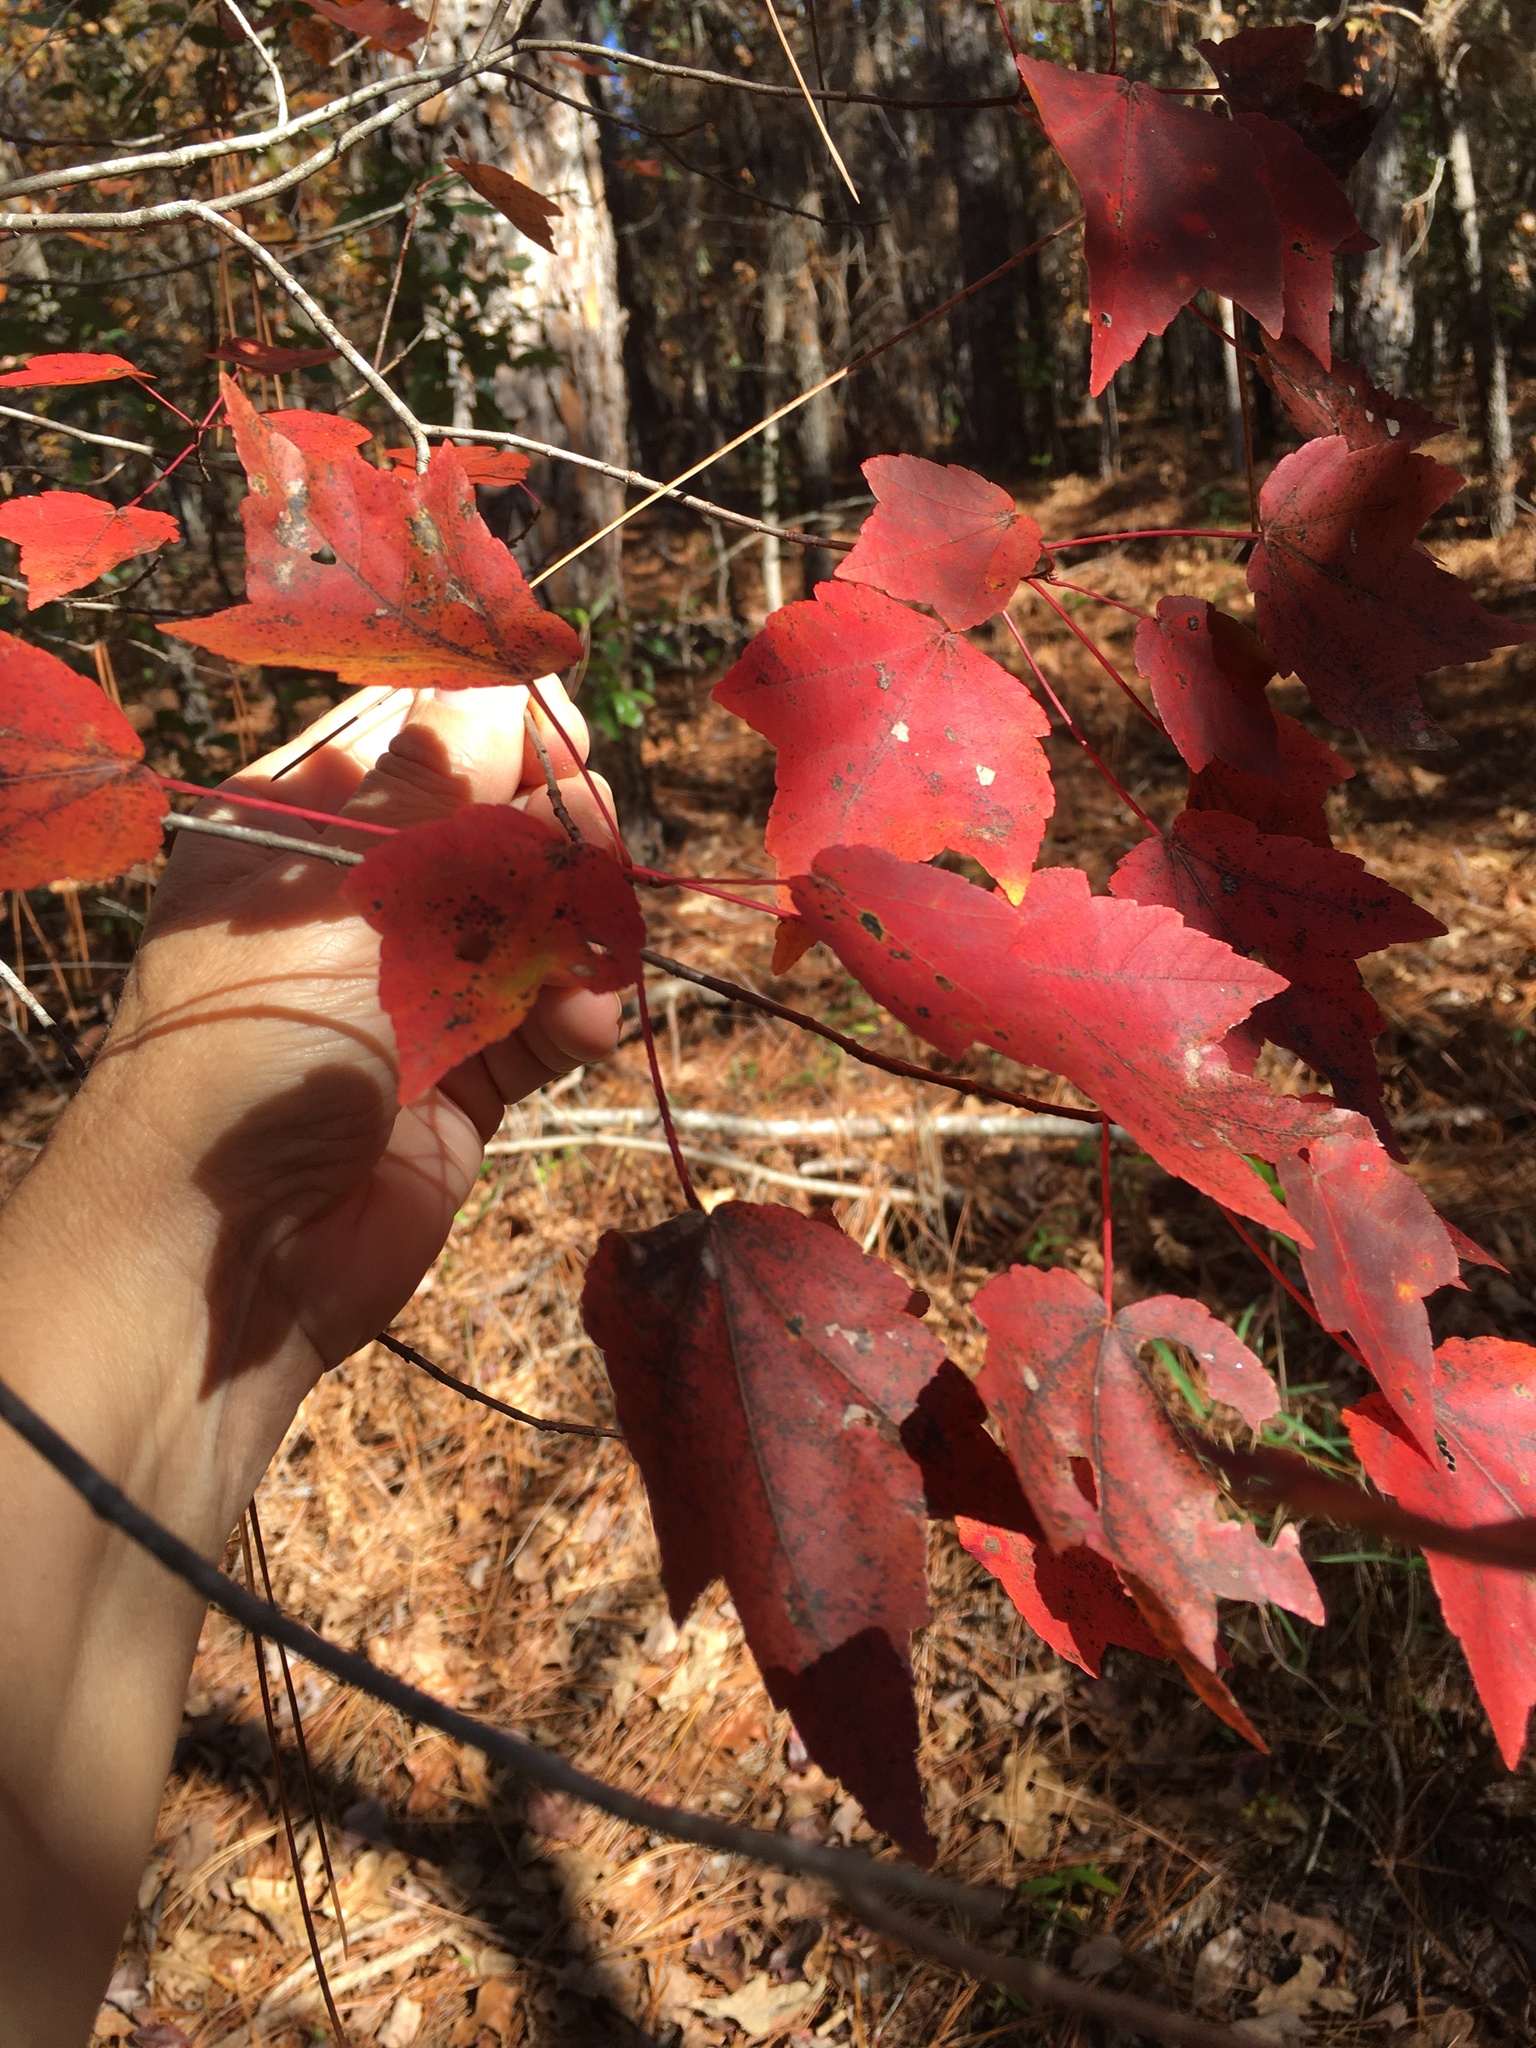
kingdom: Plantae
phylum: Tracheophyta
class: Magnoliopsida
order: Sapindales
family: Sapindaceae
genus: Acer
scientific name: Acer rubrum
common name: Red maple
